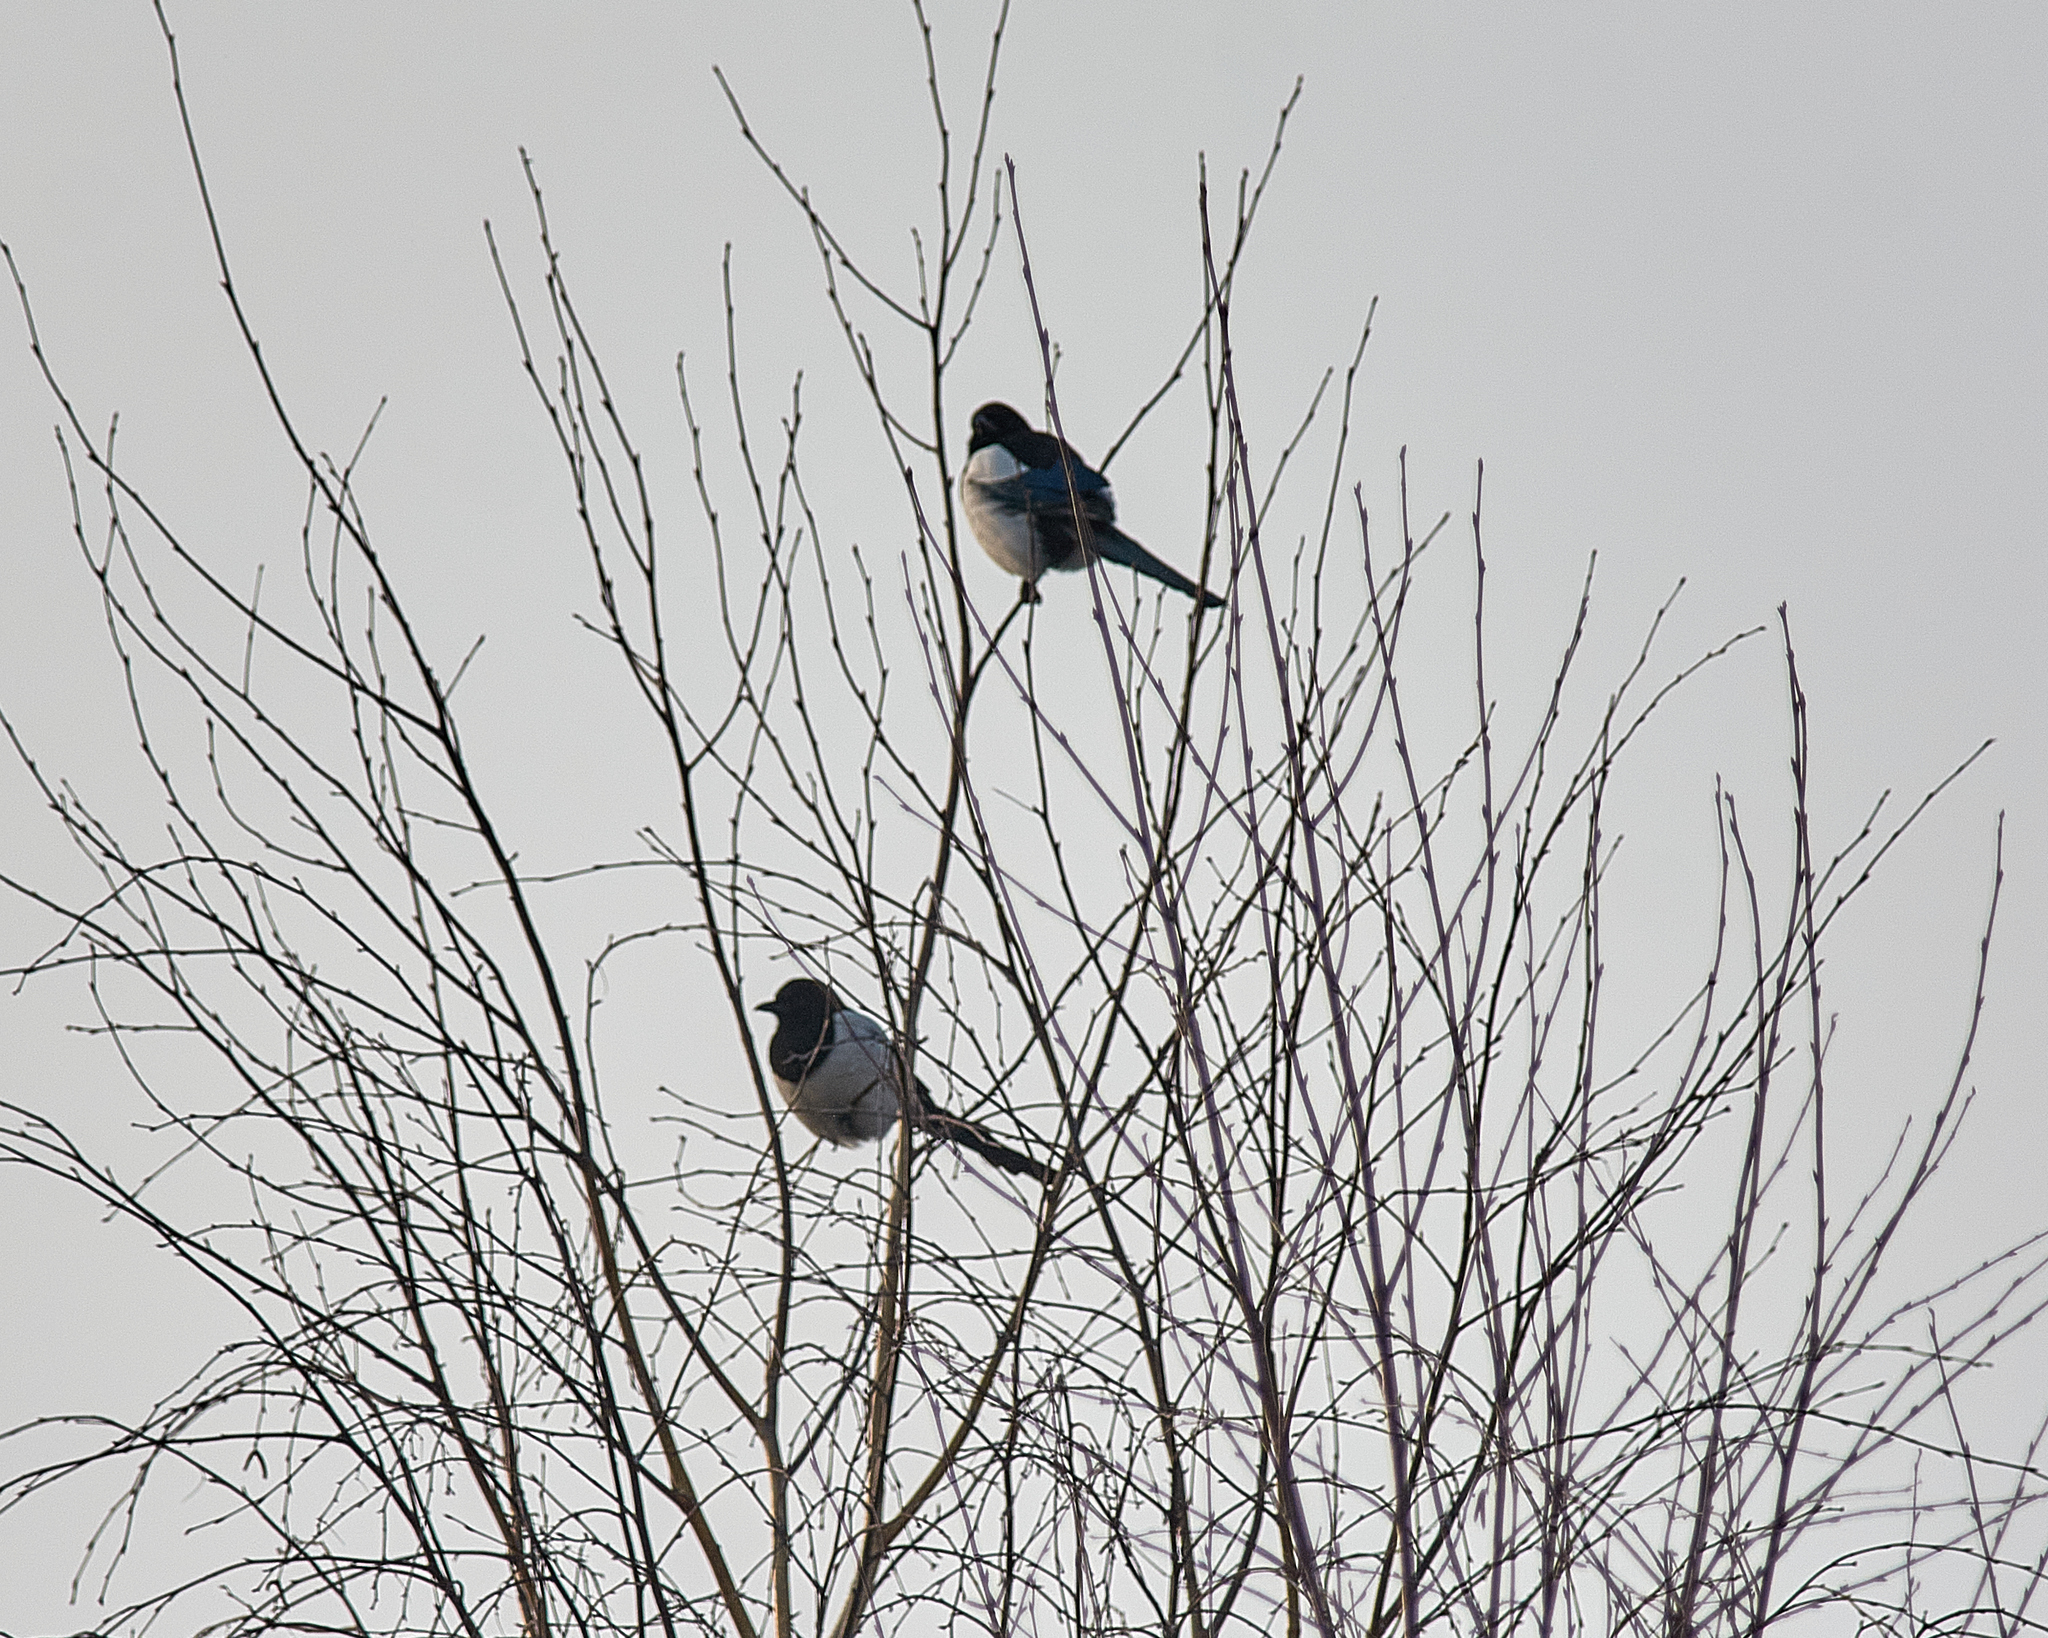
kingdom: Animalia
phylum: Chordata
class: Aves
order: Passeriformes
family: Corvidae
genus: Pica
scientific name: Pica pica
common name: Eurasian magpie
